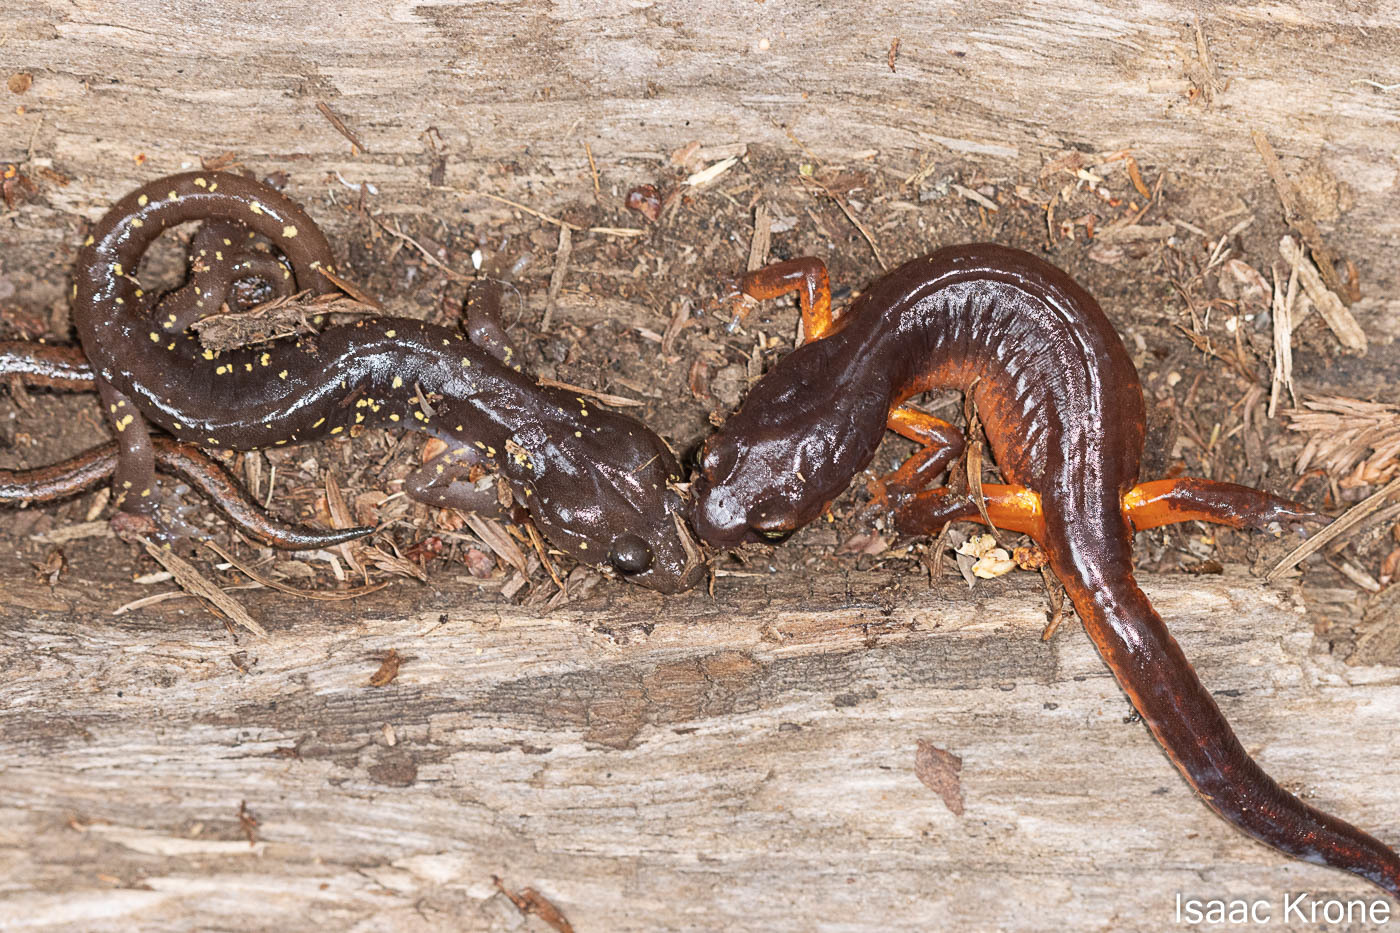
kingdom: Animalia
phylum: Chordata
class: Amphibia
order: Caudata
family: Plethodontidae
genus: Aneides
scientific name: Aneides lugubris
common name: Arboreal salamander
